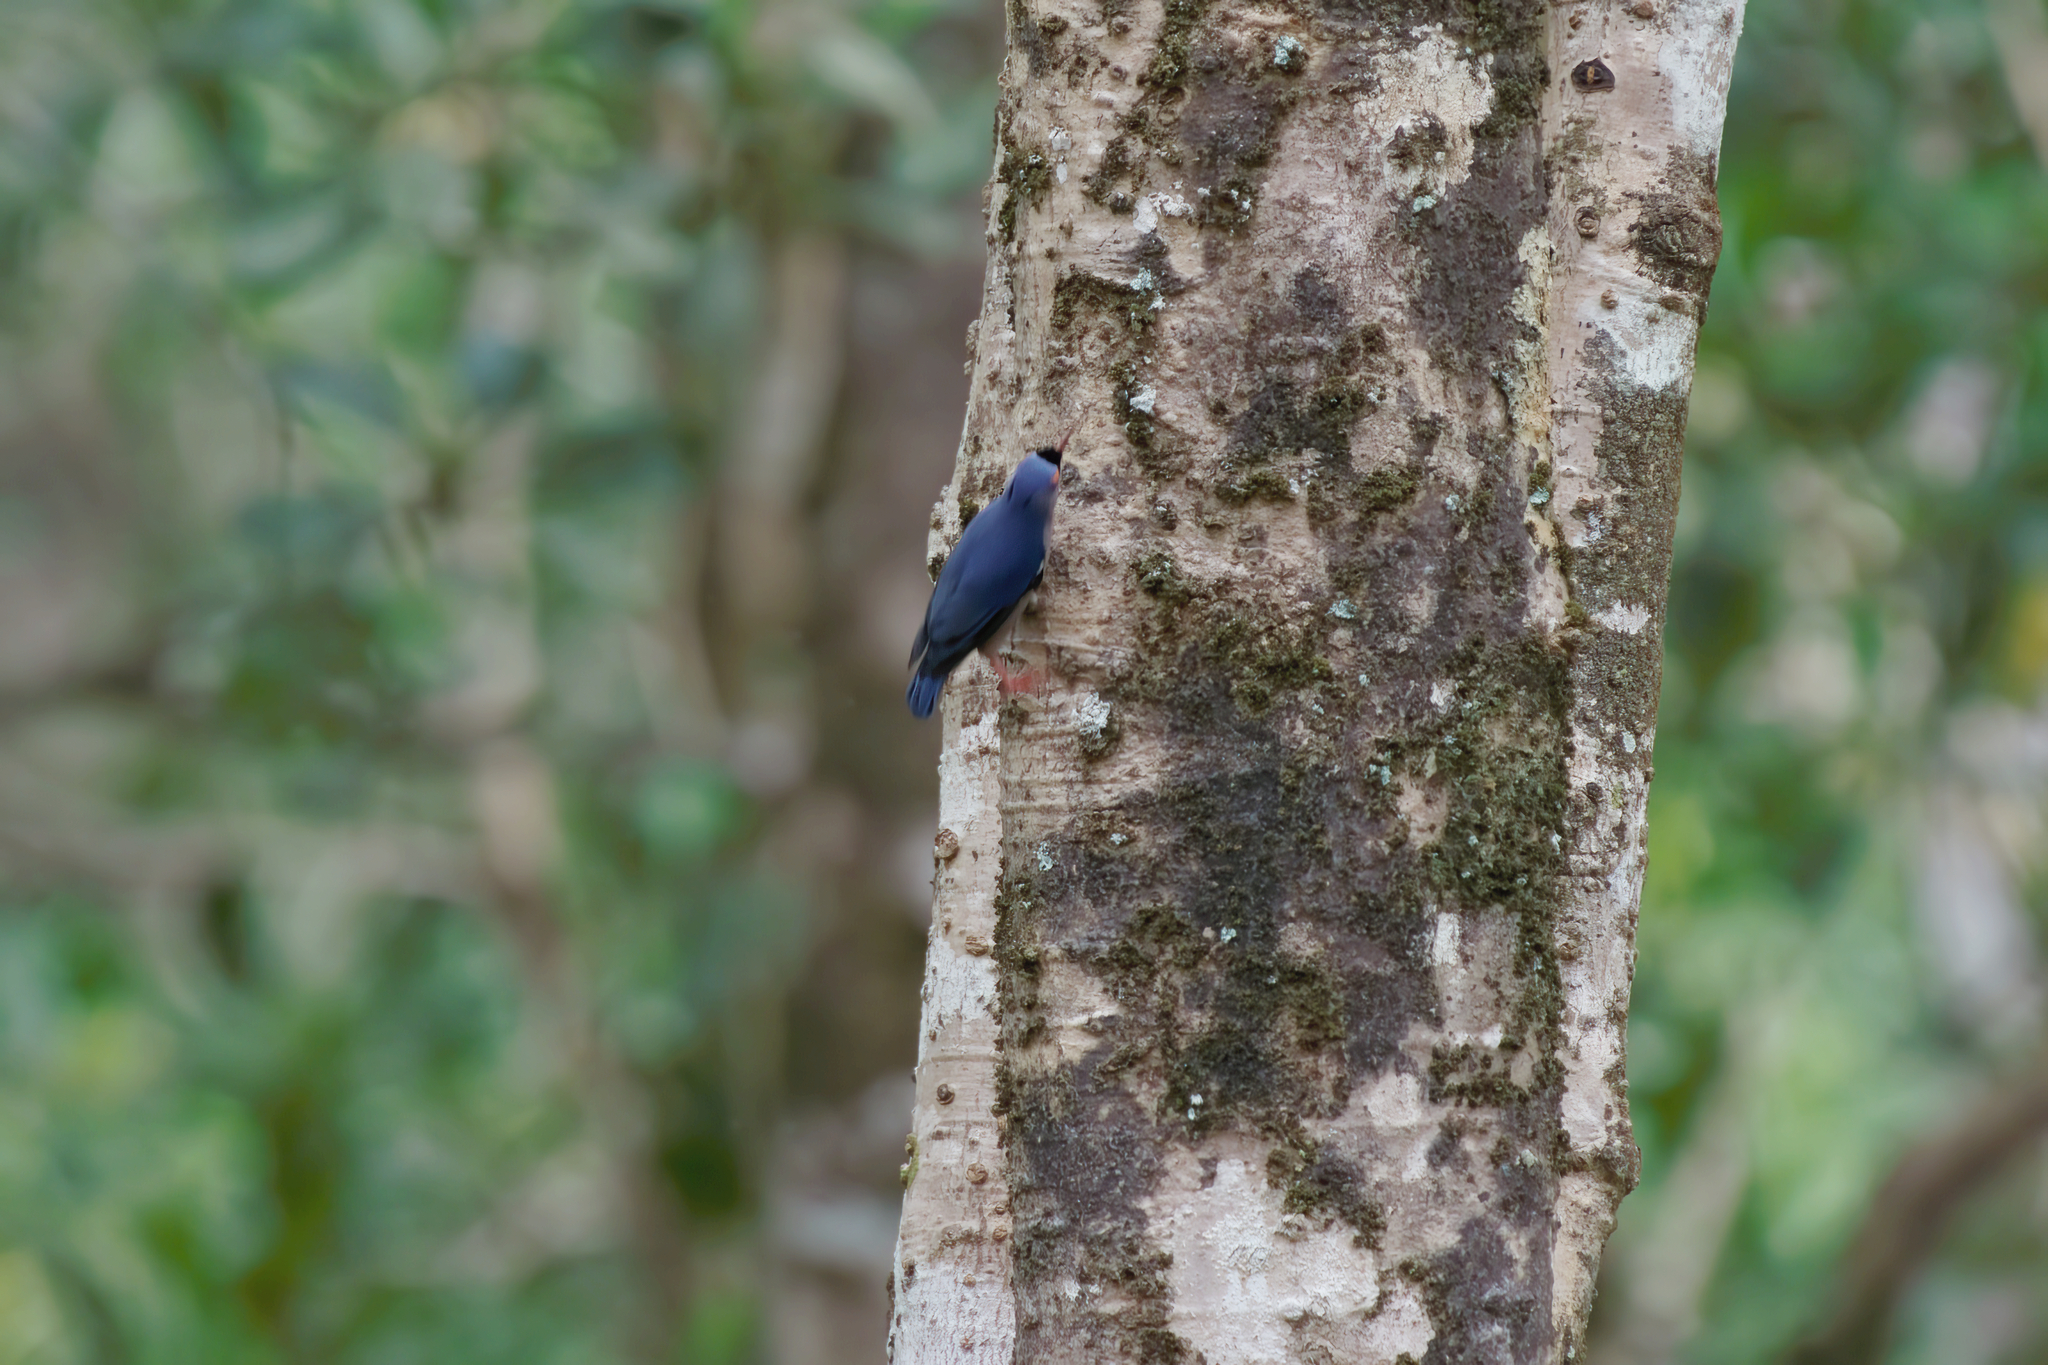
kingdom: Animalia
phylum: Chordata
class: Aves
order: Passeriformes
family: Sittidae
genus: Sitta
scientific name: Sitta frontalis
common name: Velvet-fronted nuthatch
